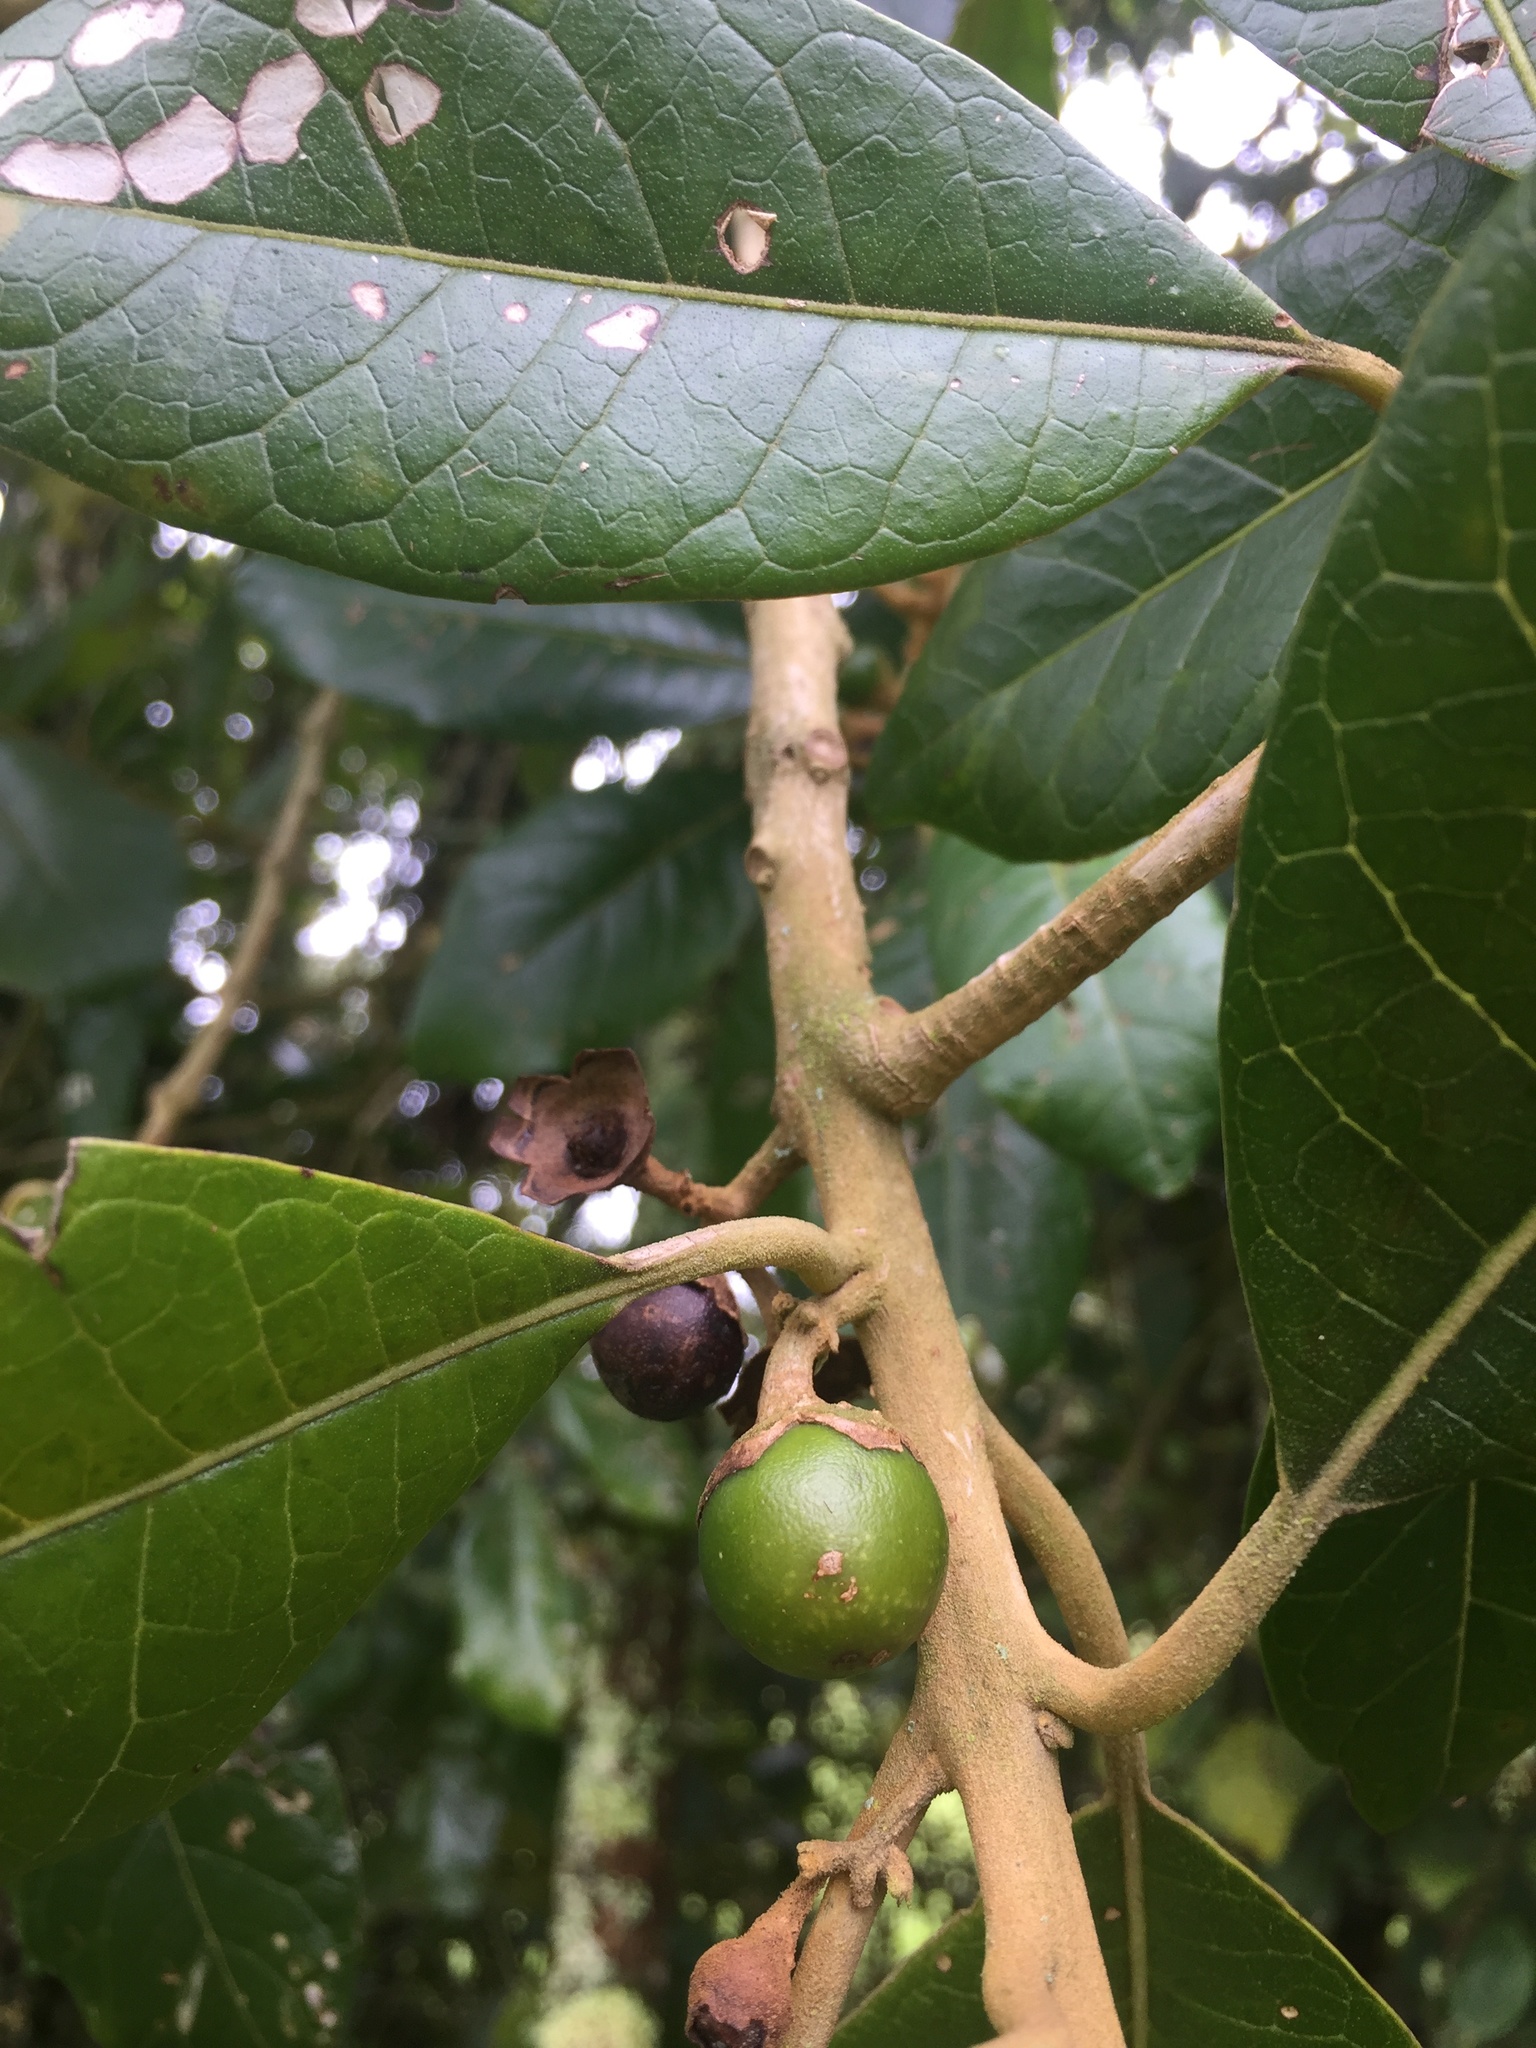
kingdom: Plantae
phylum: Tracheophyta
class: Magnoliopsida
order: Lamiales
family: Lamiaceae
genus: Aegiphila
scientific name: Aegiphila bogotensis
